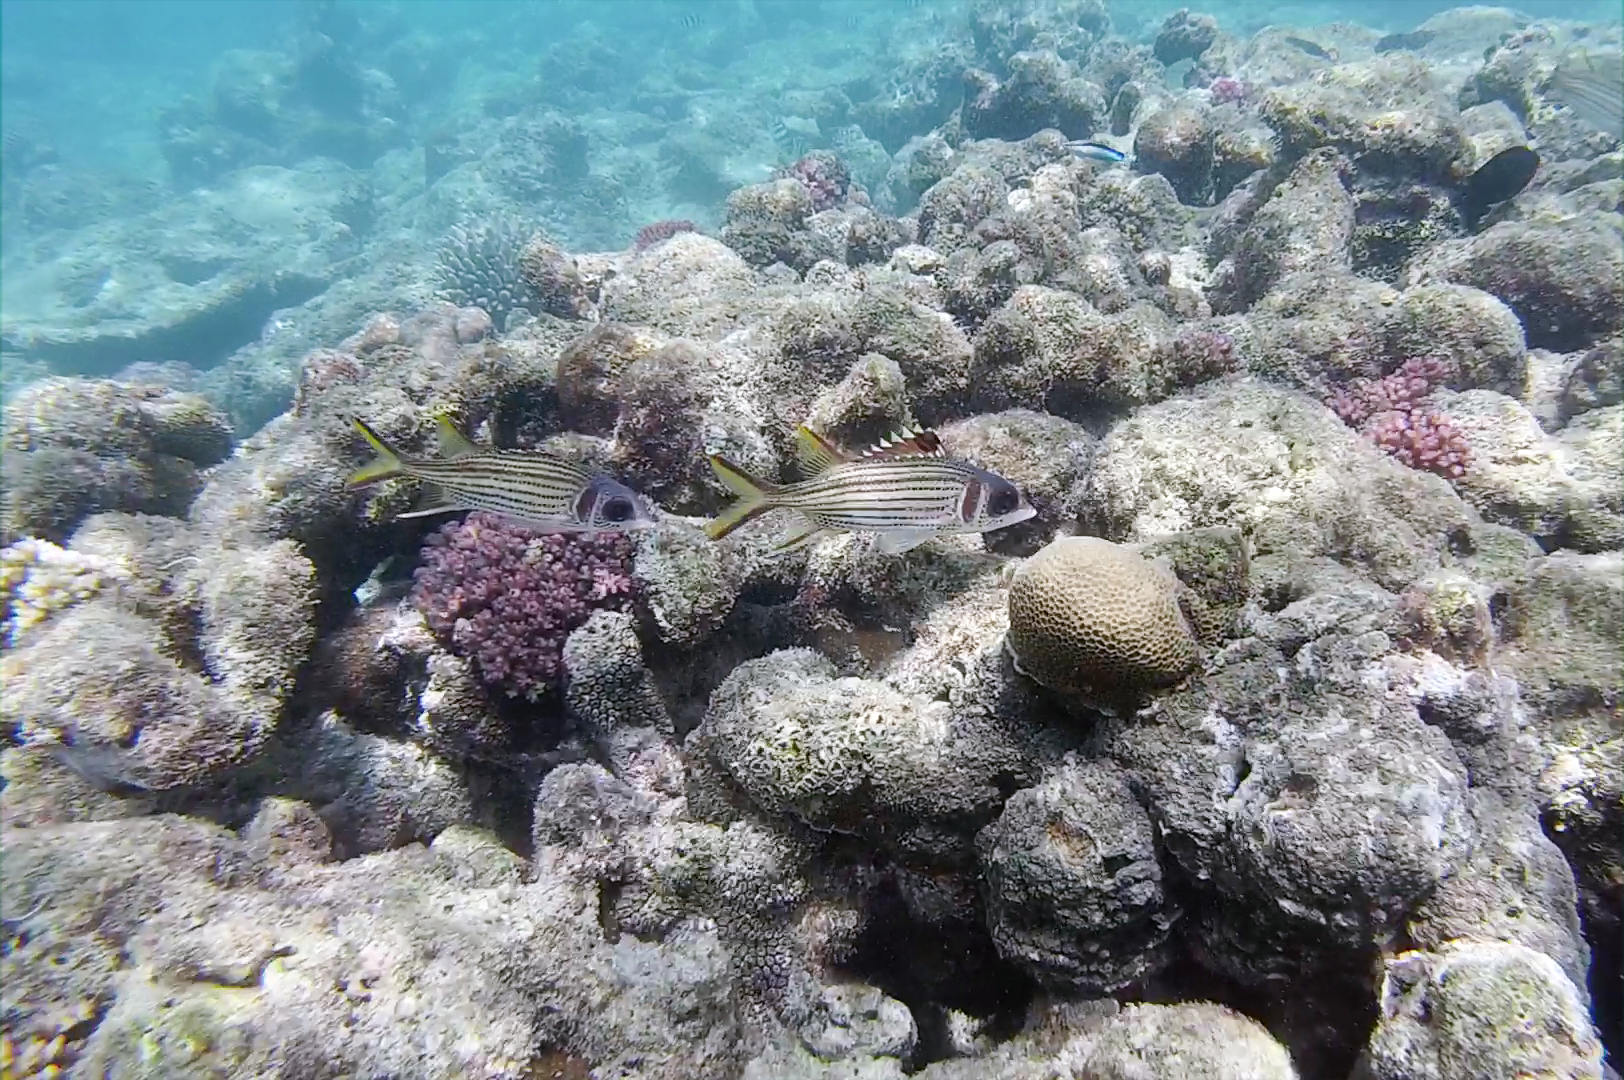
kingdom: Animalia
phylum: Chordata
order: Beryciformes
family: Holocentridae
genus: Neoniphon
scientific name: Neoniphon sammara
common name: Sammara squirrelfish
